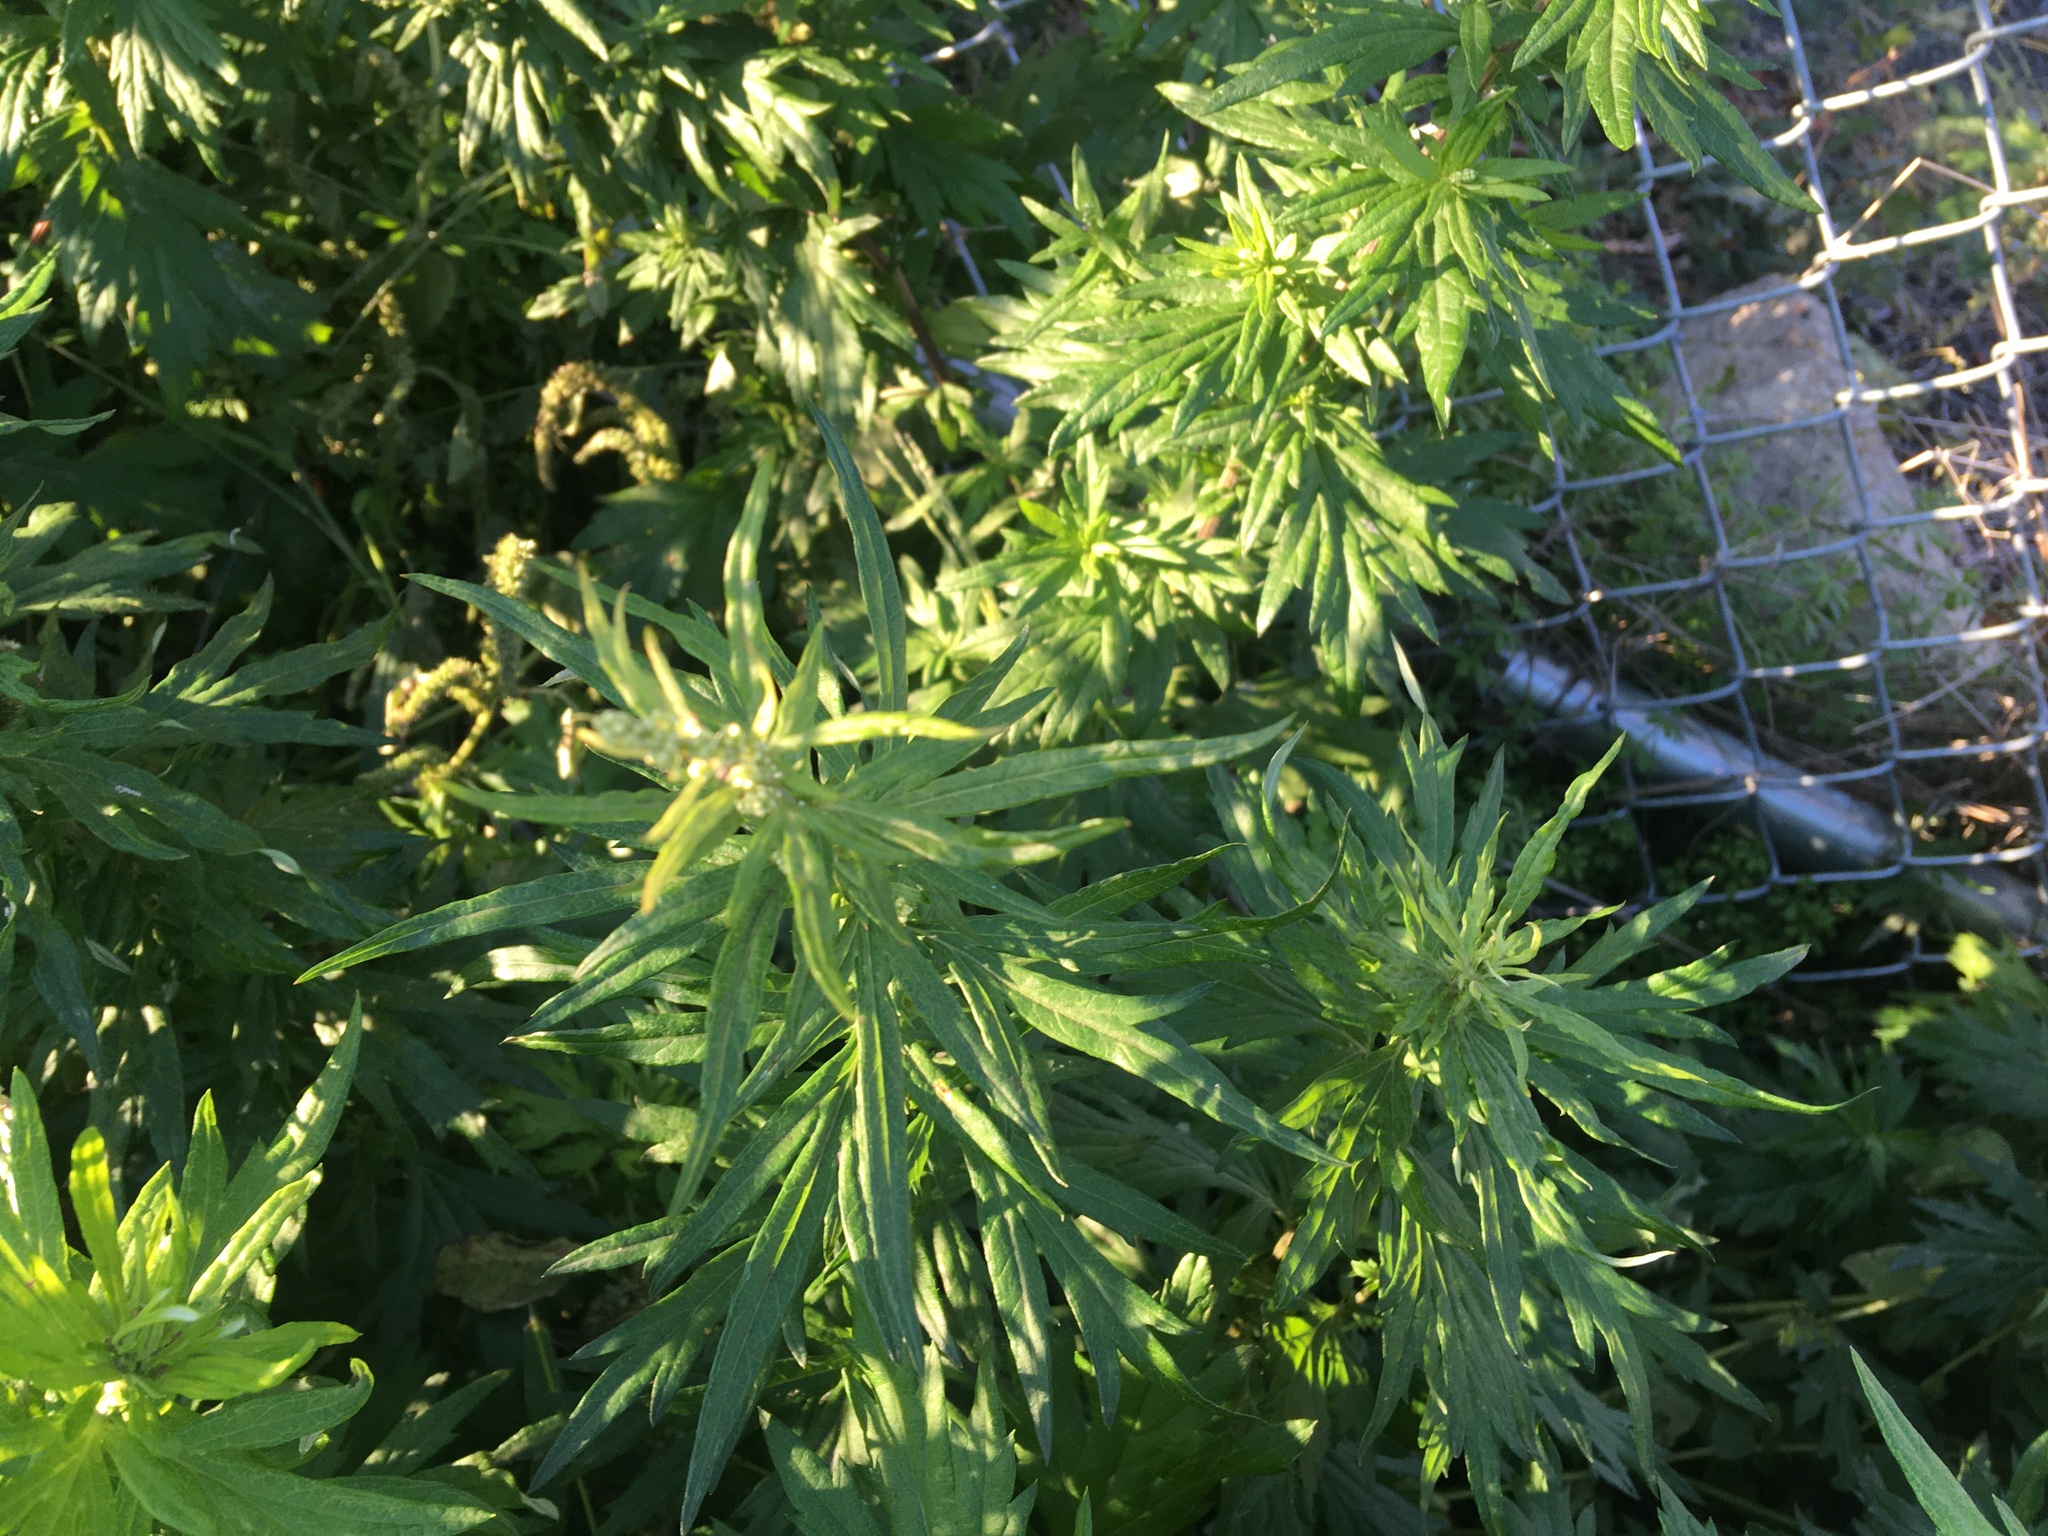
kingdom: Plantae
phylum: Tracheophyta
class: Magnoliopsida
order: Asterales
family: Asteraceae
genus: Artemisia
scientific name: Artemisia vulgaris
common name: Mugwort
